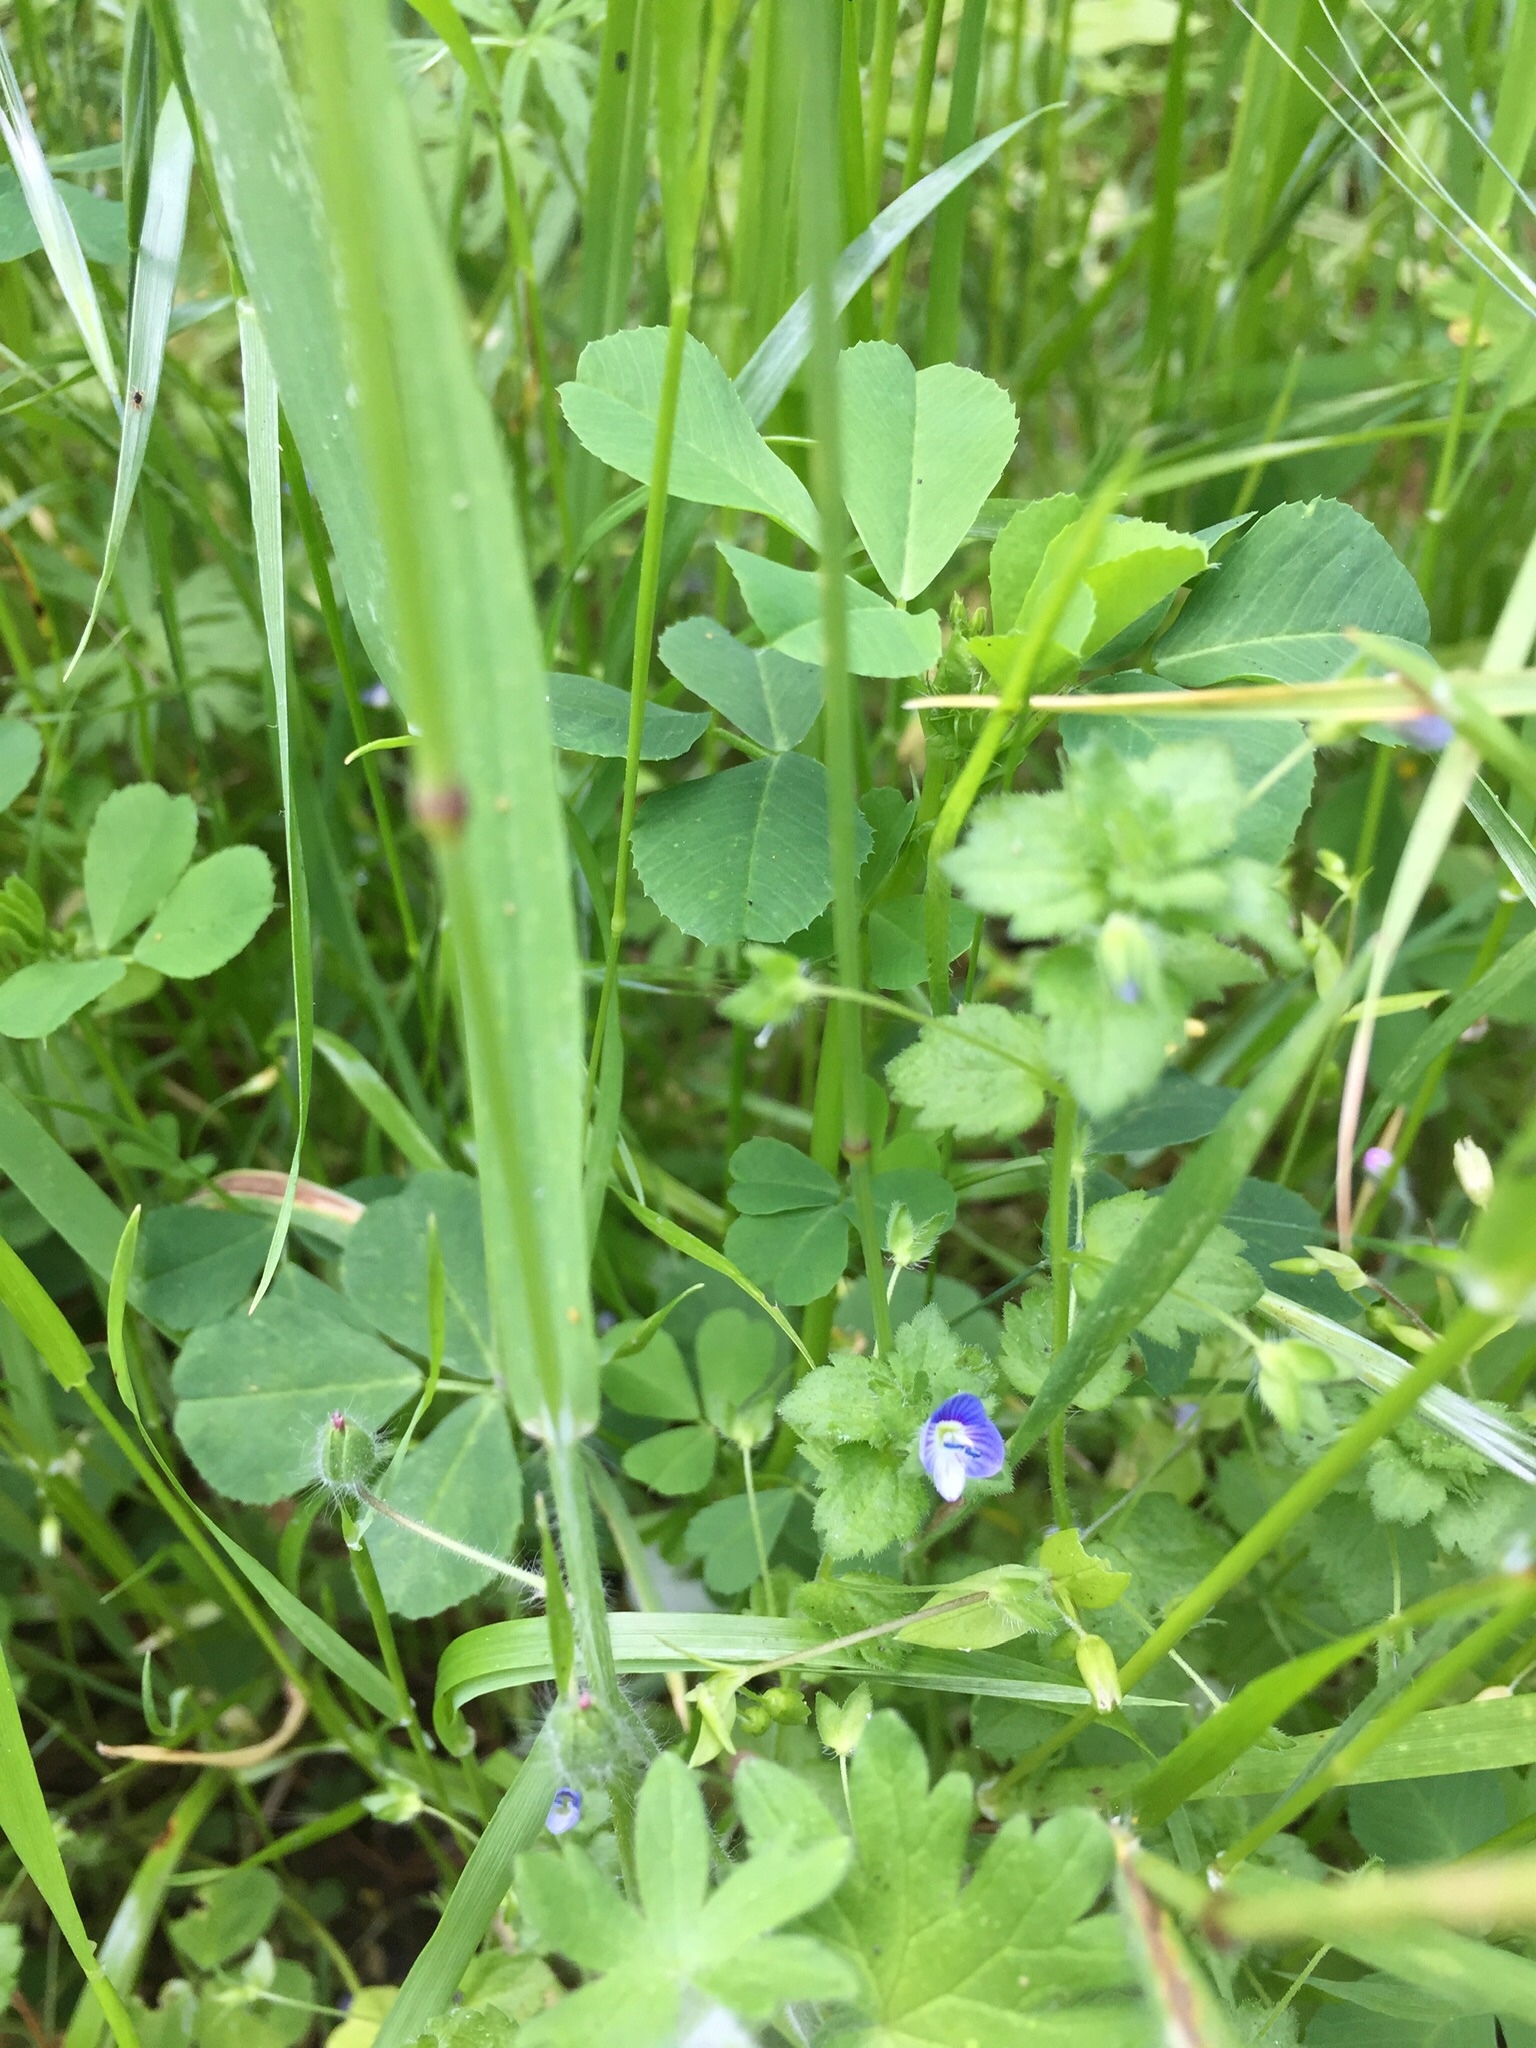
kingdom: Plantae
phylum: Tracheophyta
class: Magnoliopsida
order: Lamiales
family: Plantaginaceae
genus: Veronica
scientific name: Veronica persica
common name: Common field-speedwell
